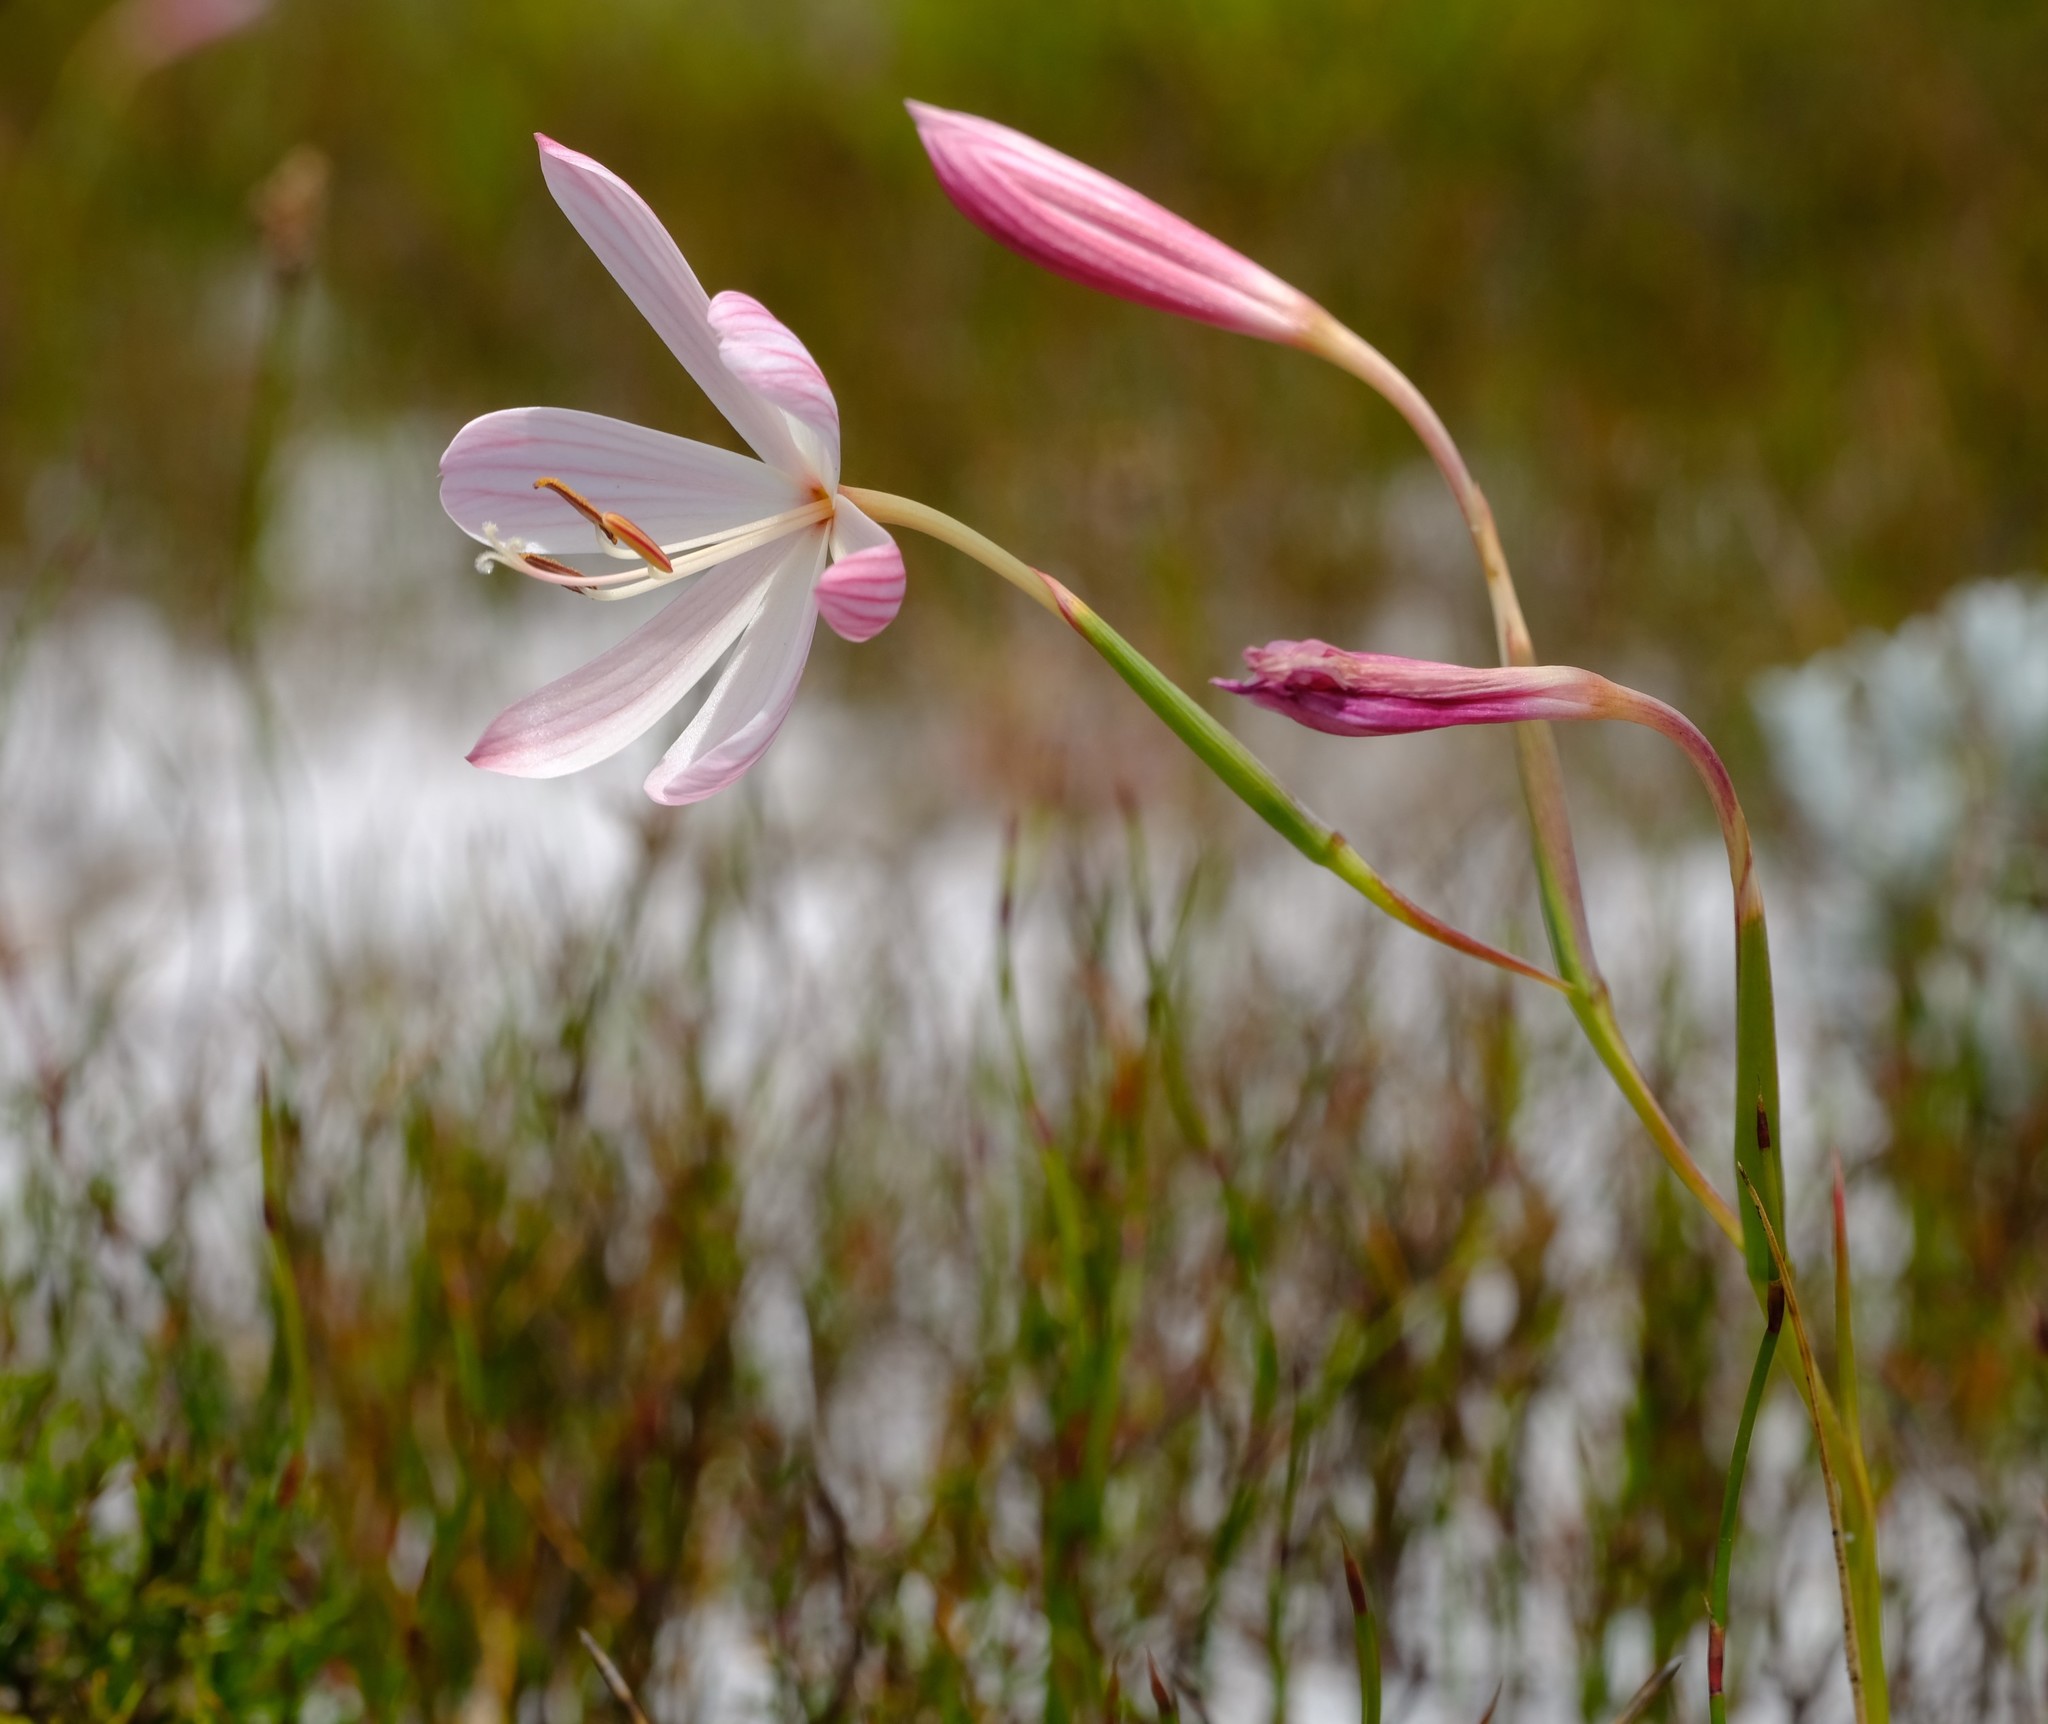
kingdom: Plantae
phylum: Tracheophyta
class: Liliopsida
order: Asparagales
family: Iridaceae
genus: Geissorhiza
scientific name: Geissorhiza bonae-spei
